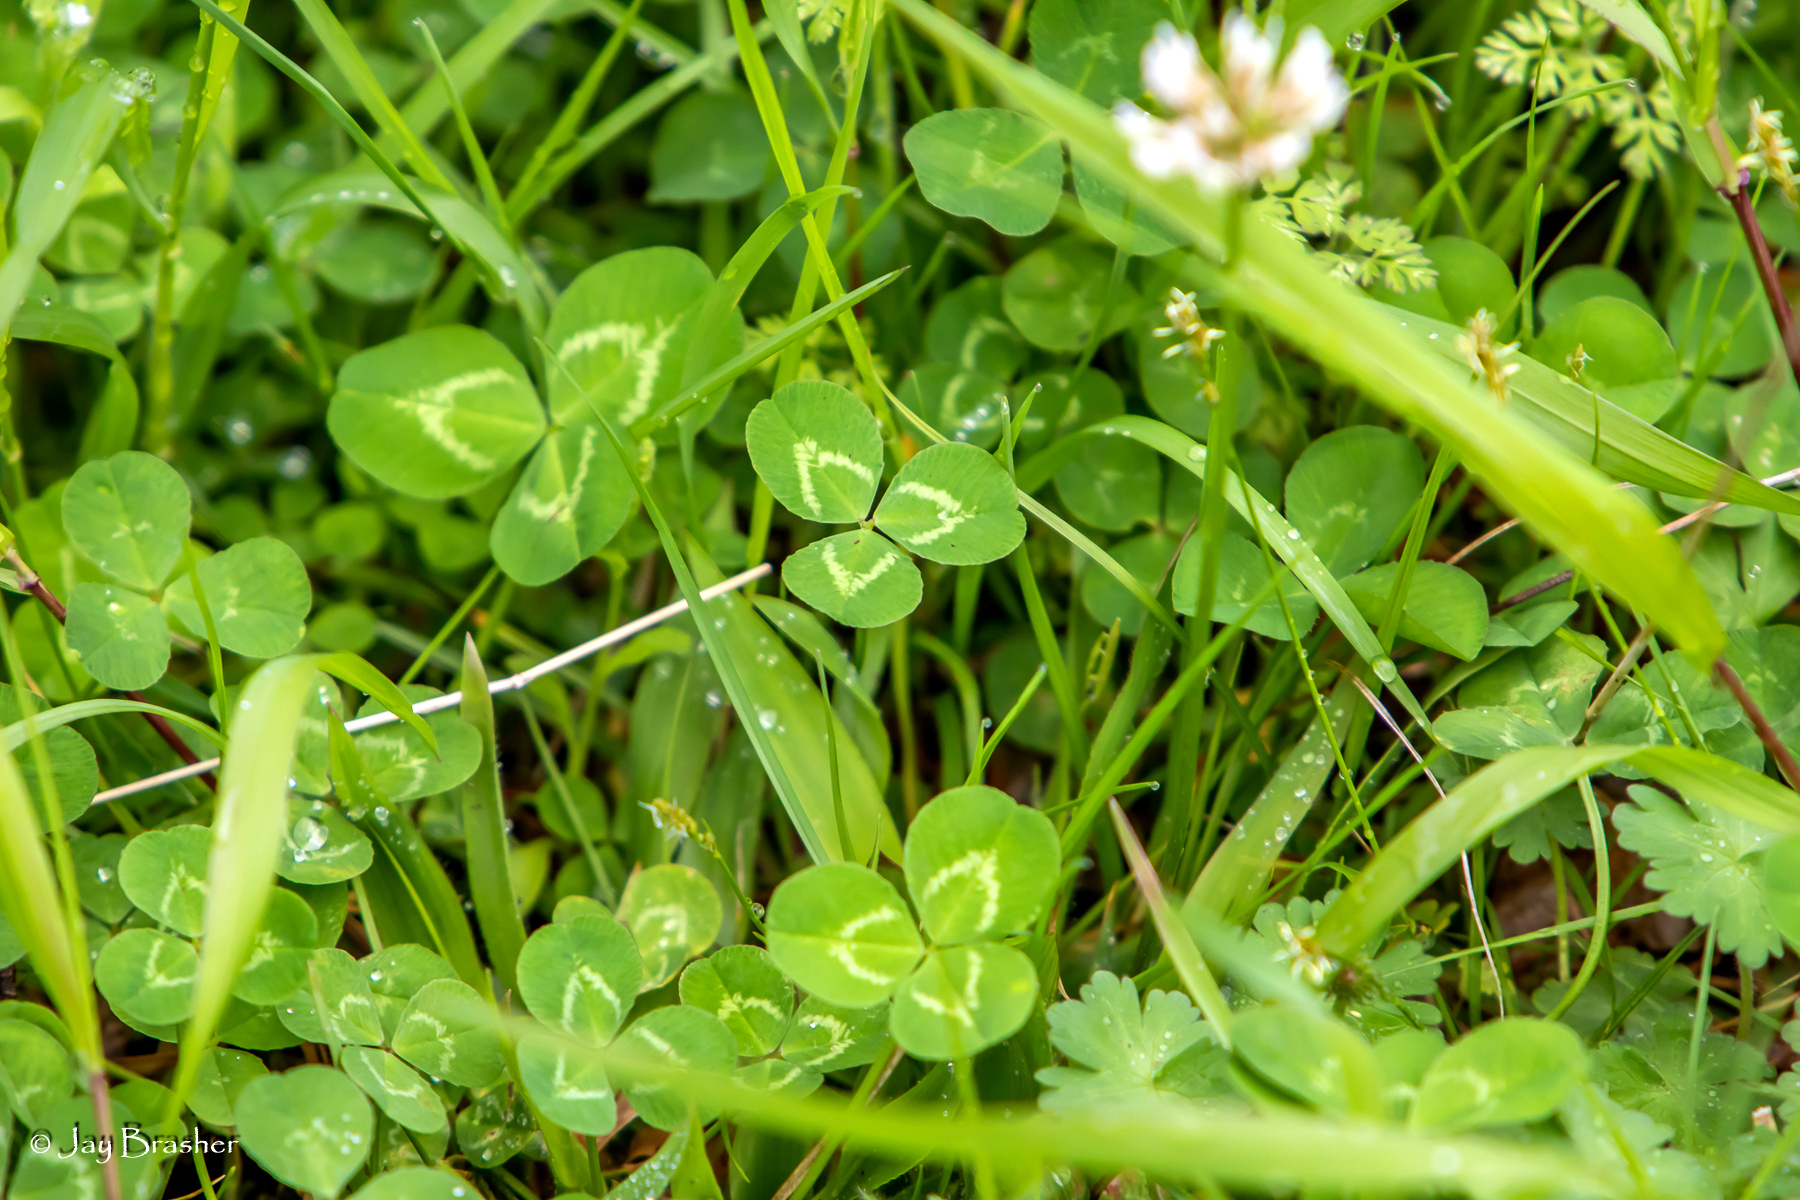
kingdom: Plantae
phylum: Tracheophyta
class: Magnoliopsida
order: Fabales
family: Fabaceae
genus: Trifolium
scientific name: Trifolium repens
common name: White clover
